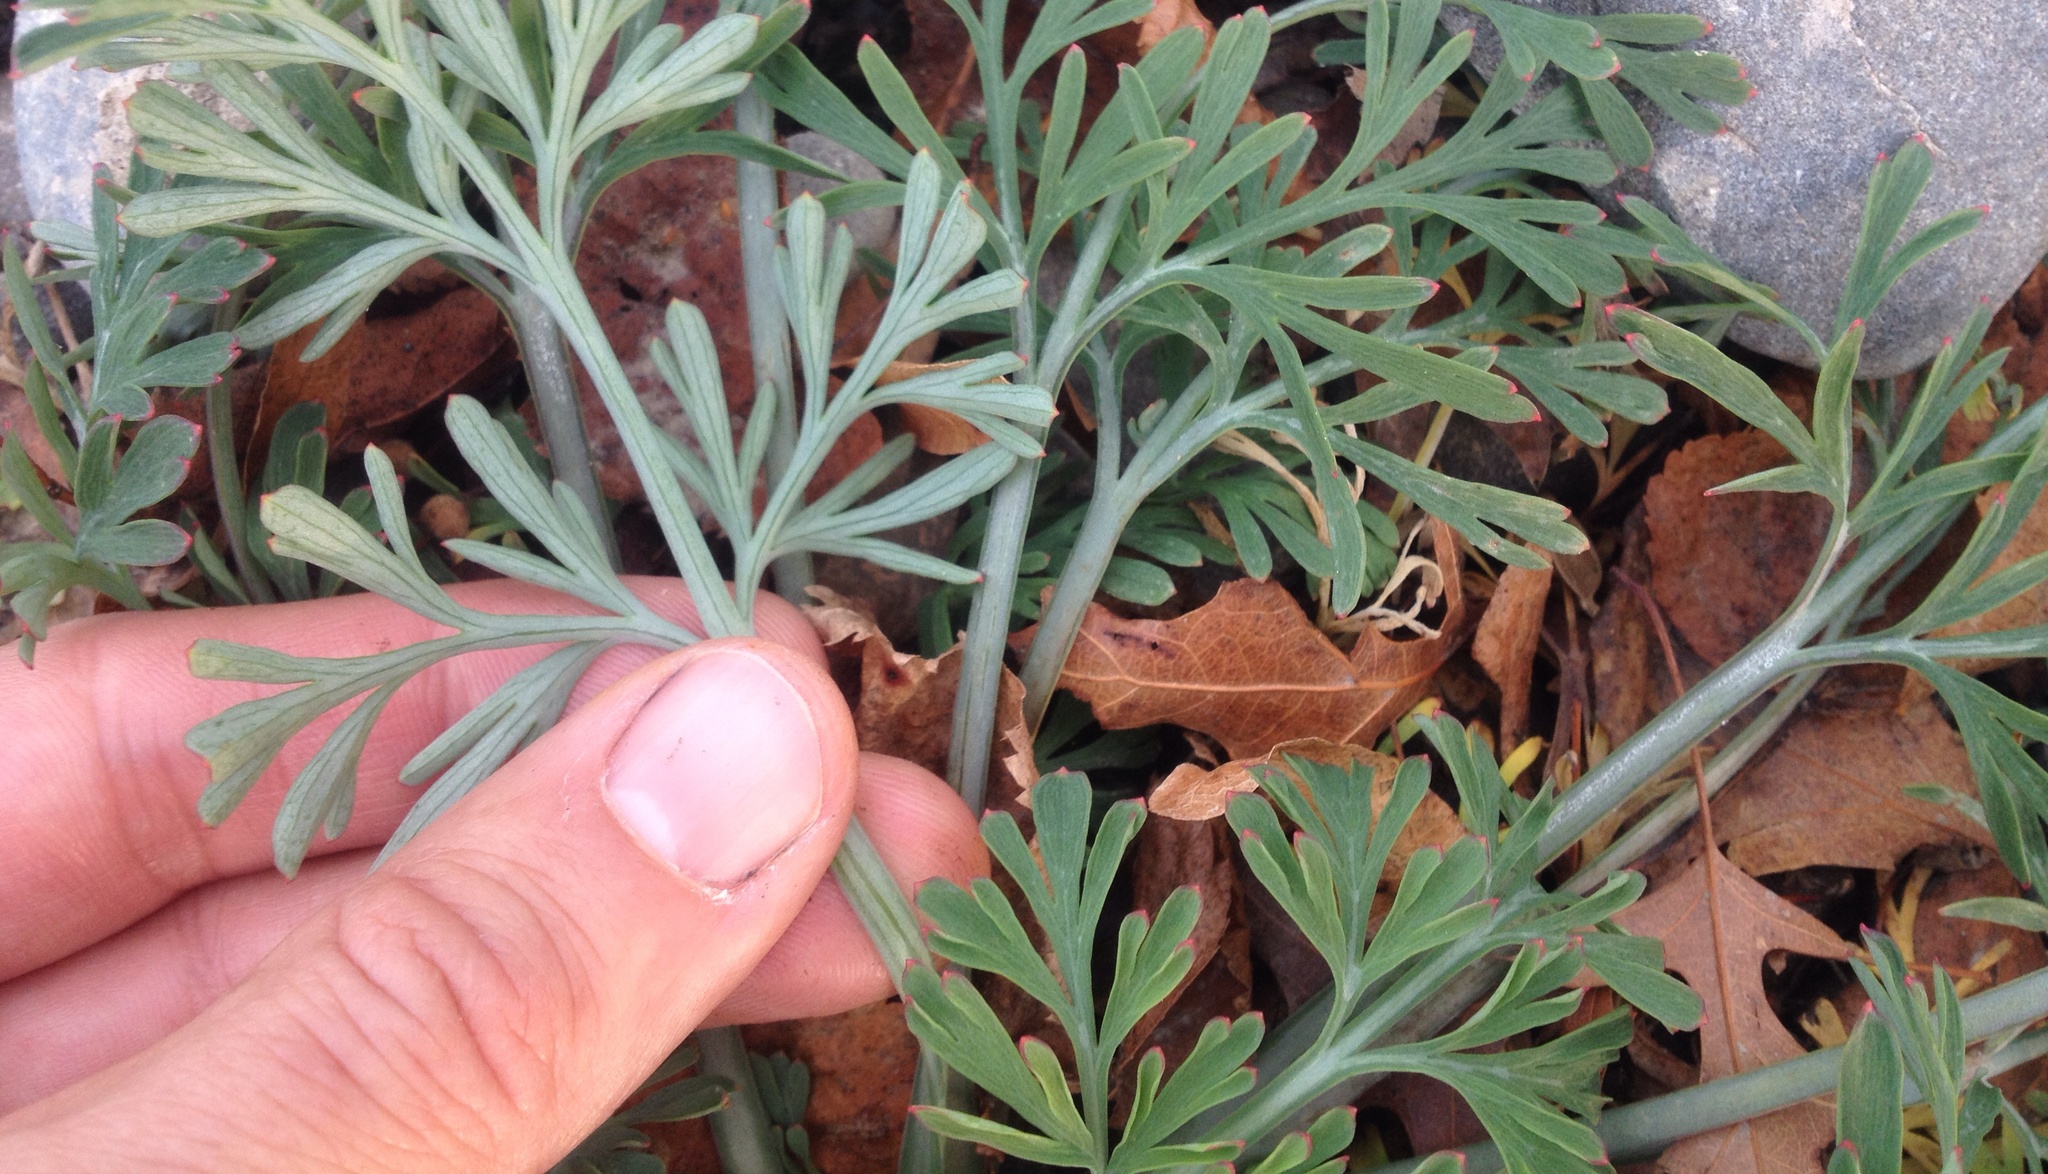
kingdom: Plantae
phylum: Tracheophyta
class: Magnoliopsida
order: Ranunculales
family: Papaveraceae
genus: Eschscholzia
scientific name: Eschscholzia californica
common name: California poppy
